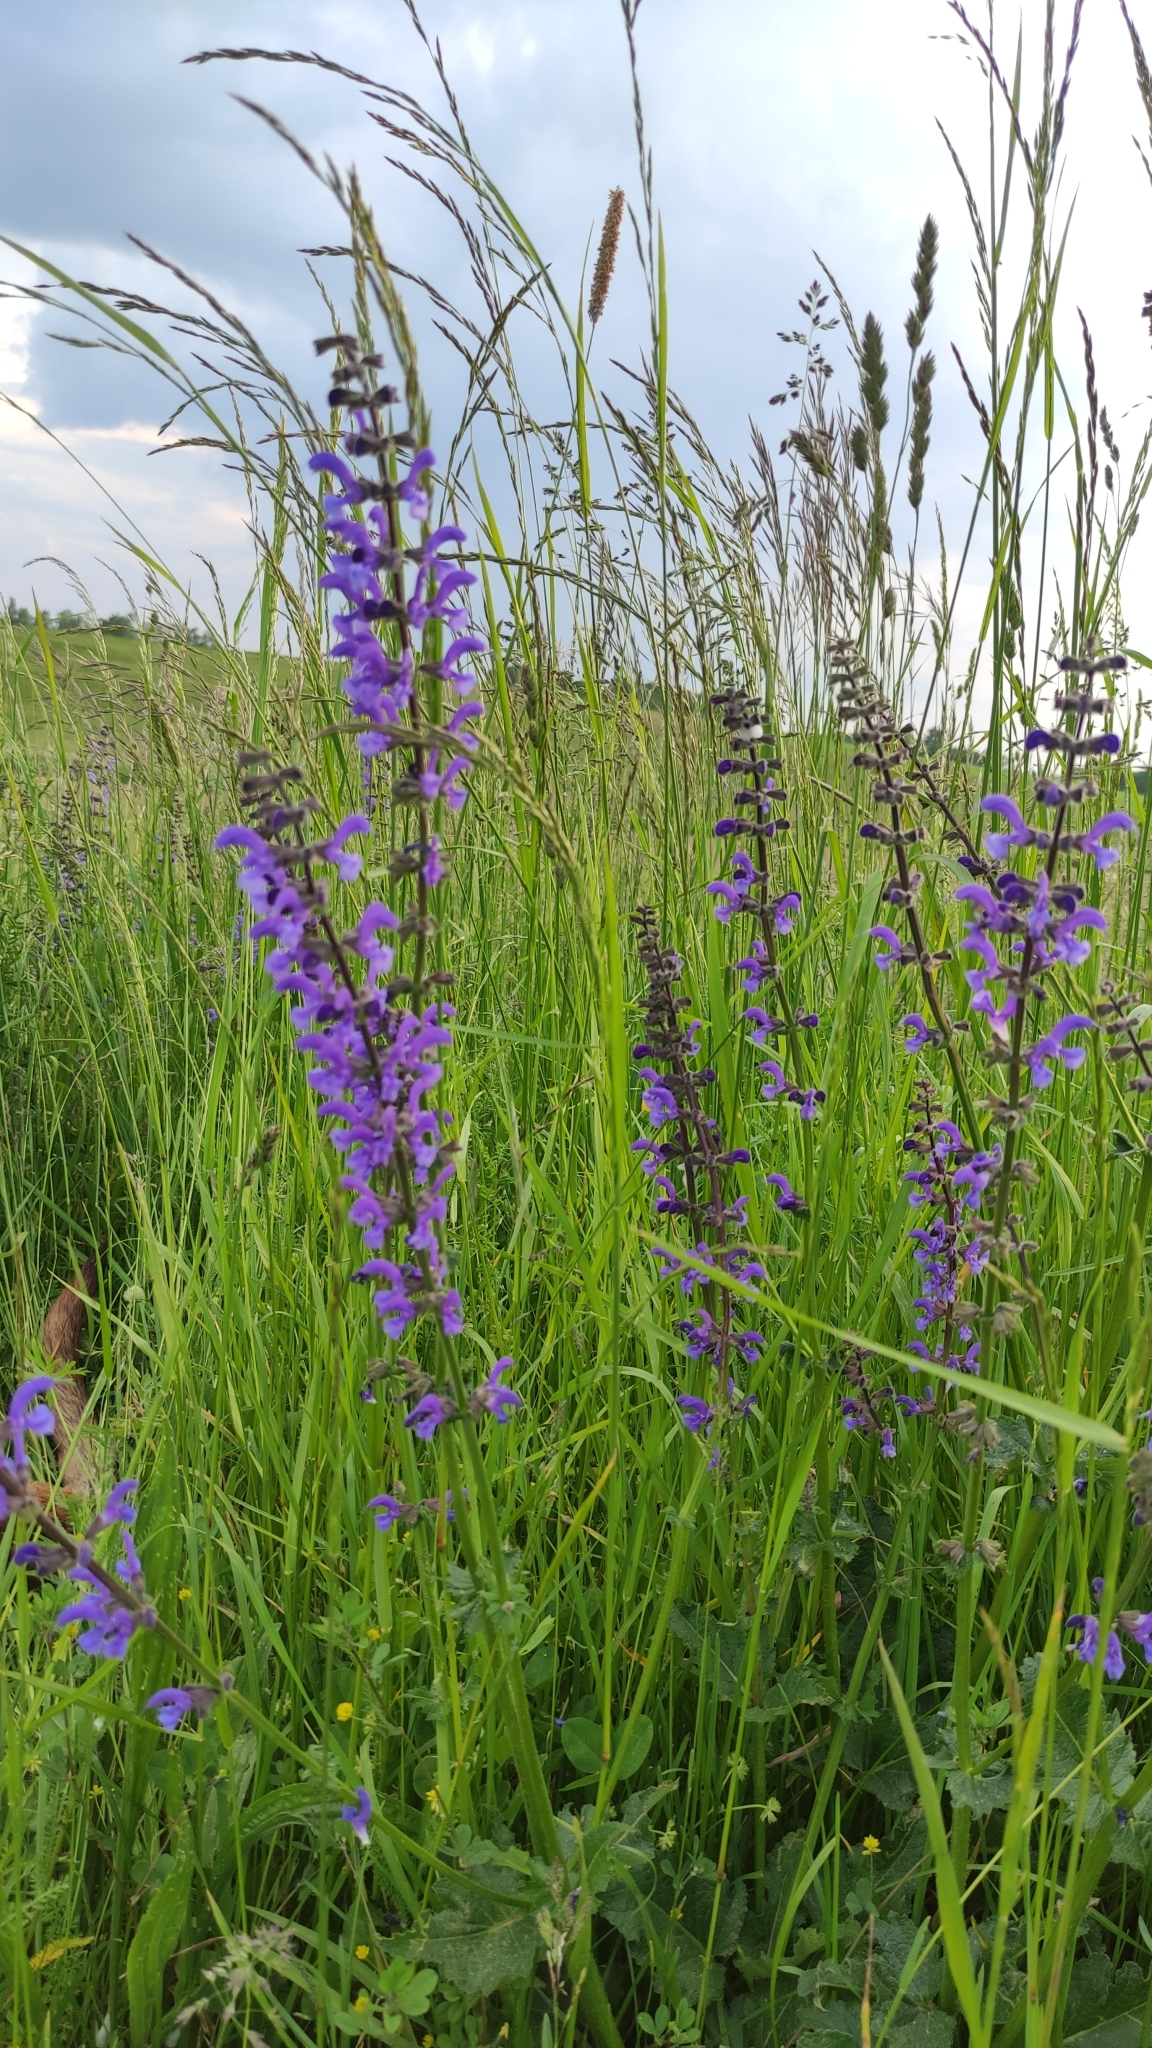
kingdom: Plantae
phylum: Tracheophyta
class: Magnoliopsida
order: Lamiales
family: Lamiaceae
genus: Salvia
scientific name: Salvia pratensis
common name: Meadow sage
